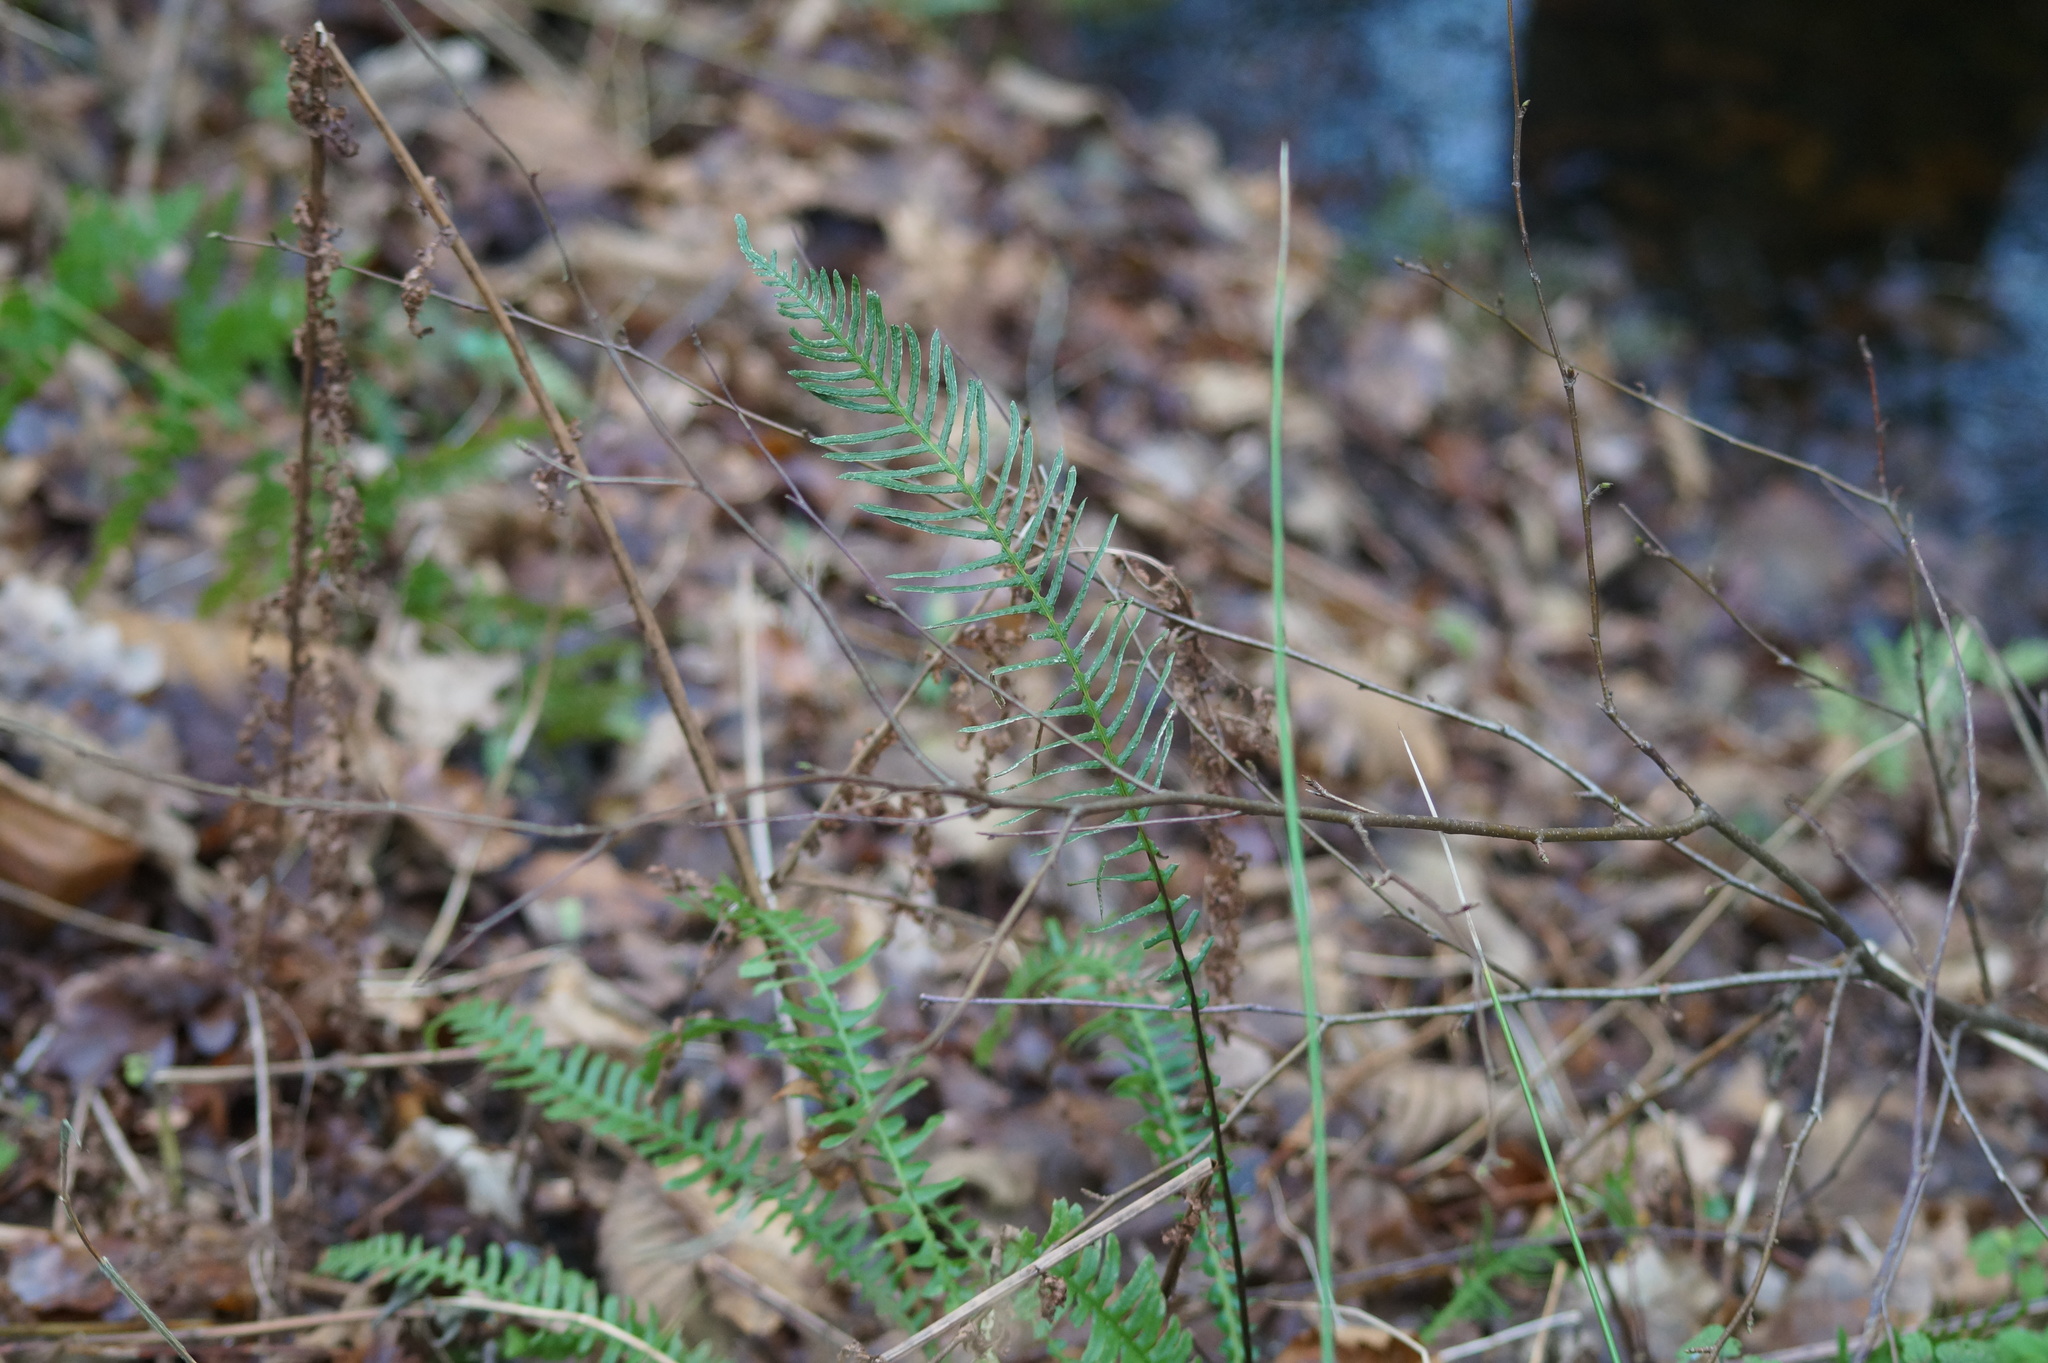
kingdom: Plantae
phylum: Tracheophyta
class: Polypodiopsida
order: Polypodiales
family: Blechnaceae
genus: Struthiopteris
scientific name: Struthiopteris spicant
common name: Deer fern
